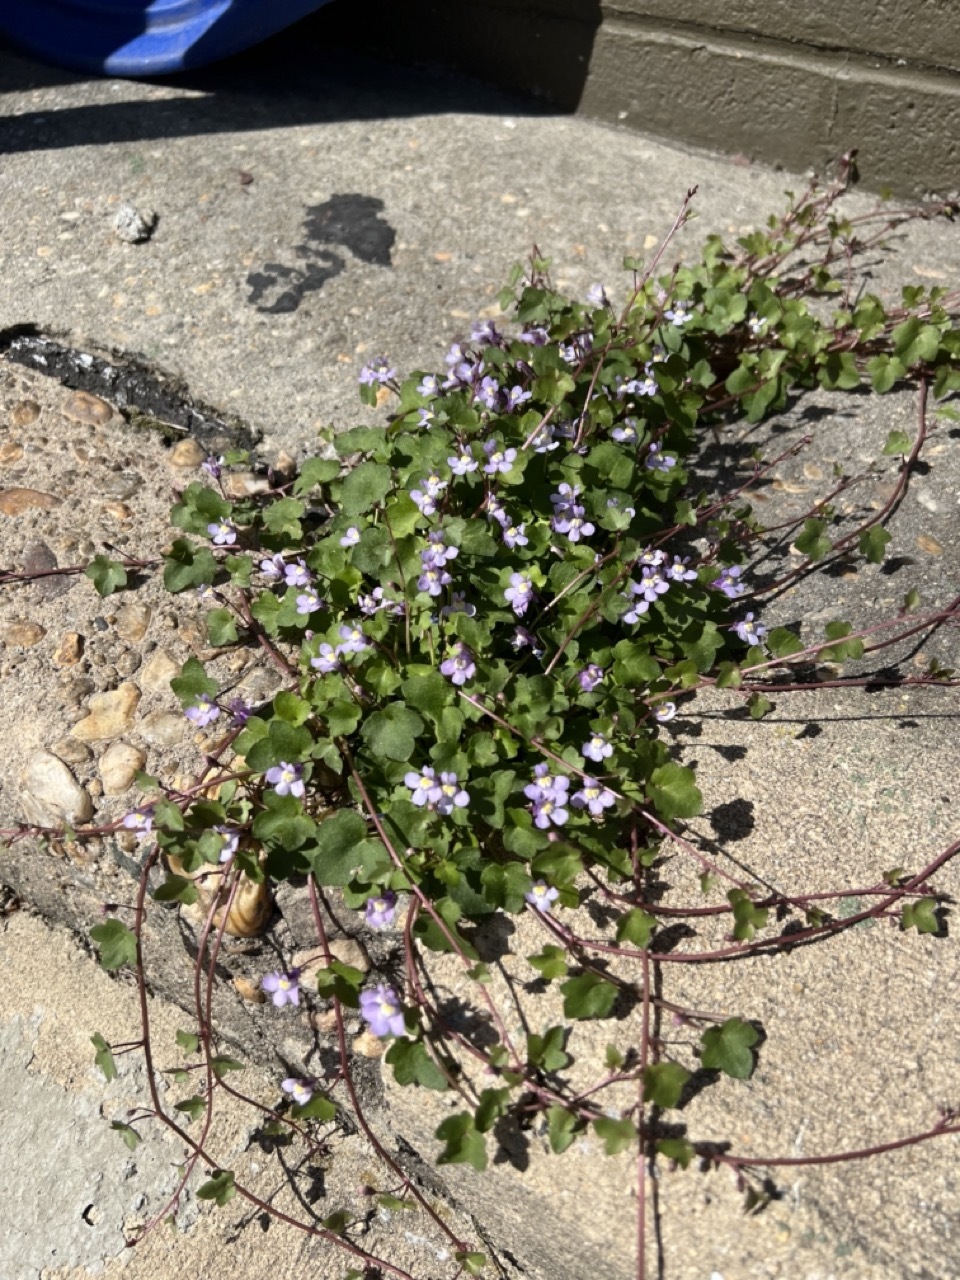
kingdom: Plantae
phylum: Tracheophyta
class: Magnoliopsida
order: Lamiales
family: Plantaginaceae
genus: Cymbalaria
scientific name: Cymbalaria muralis
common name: Ivy-leaved toadflax
